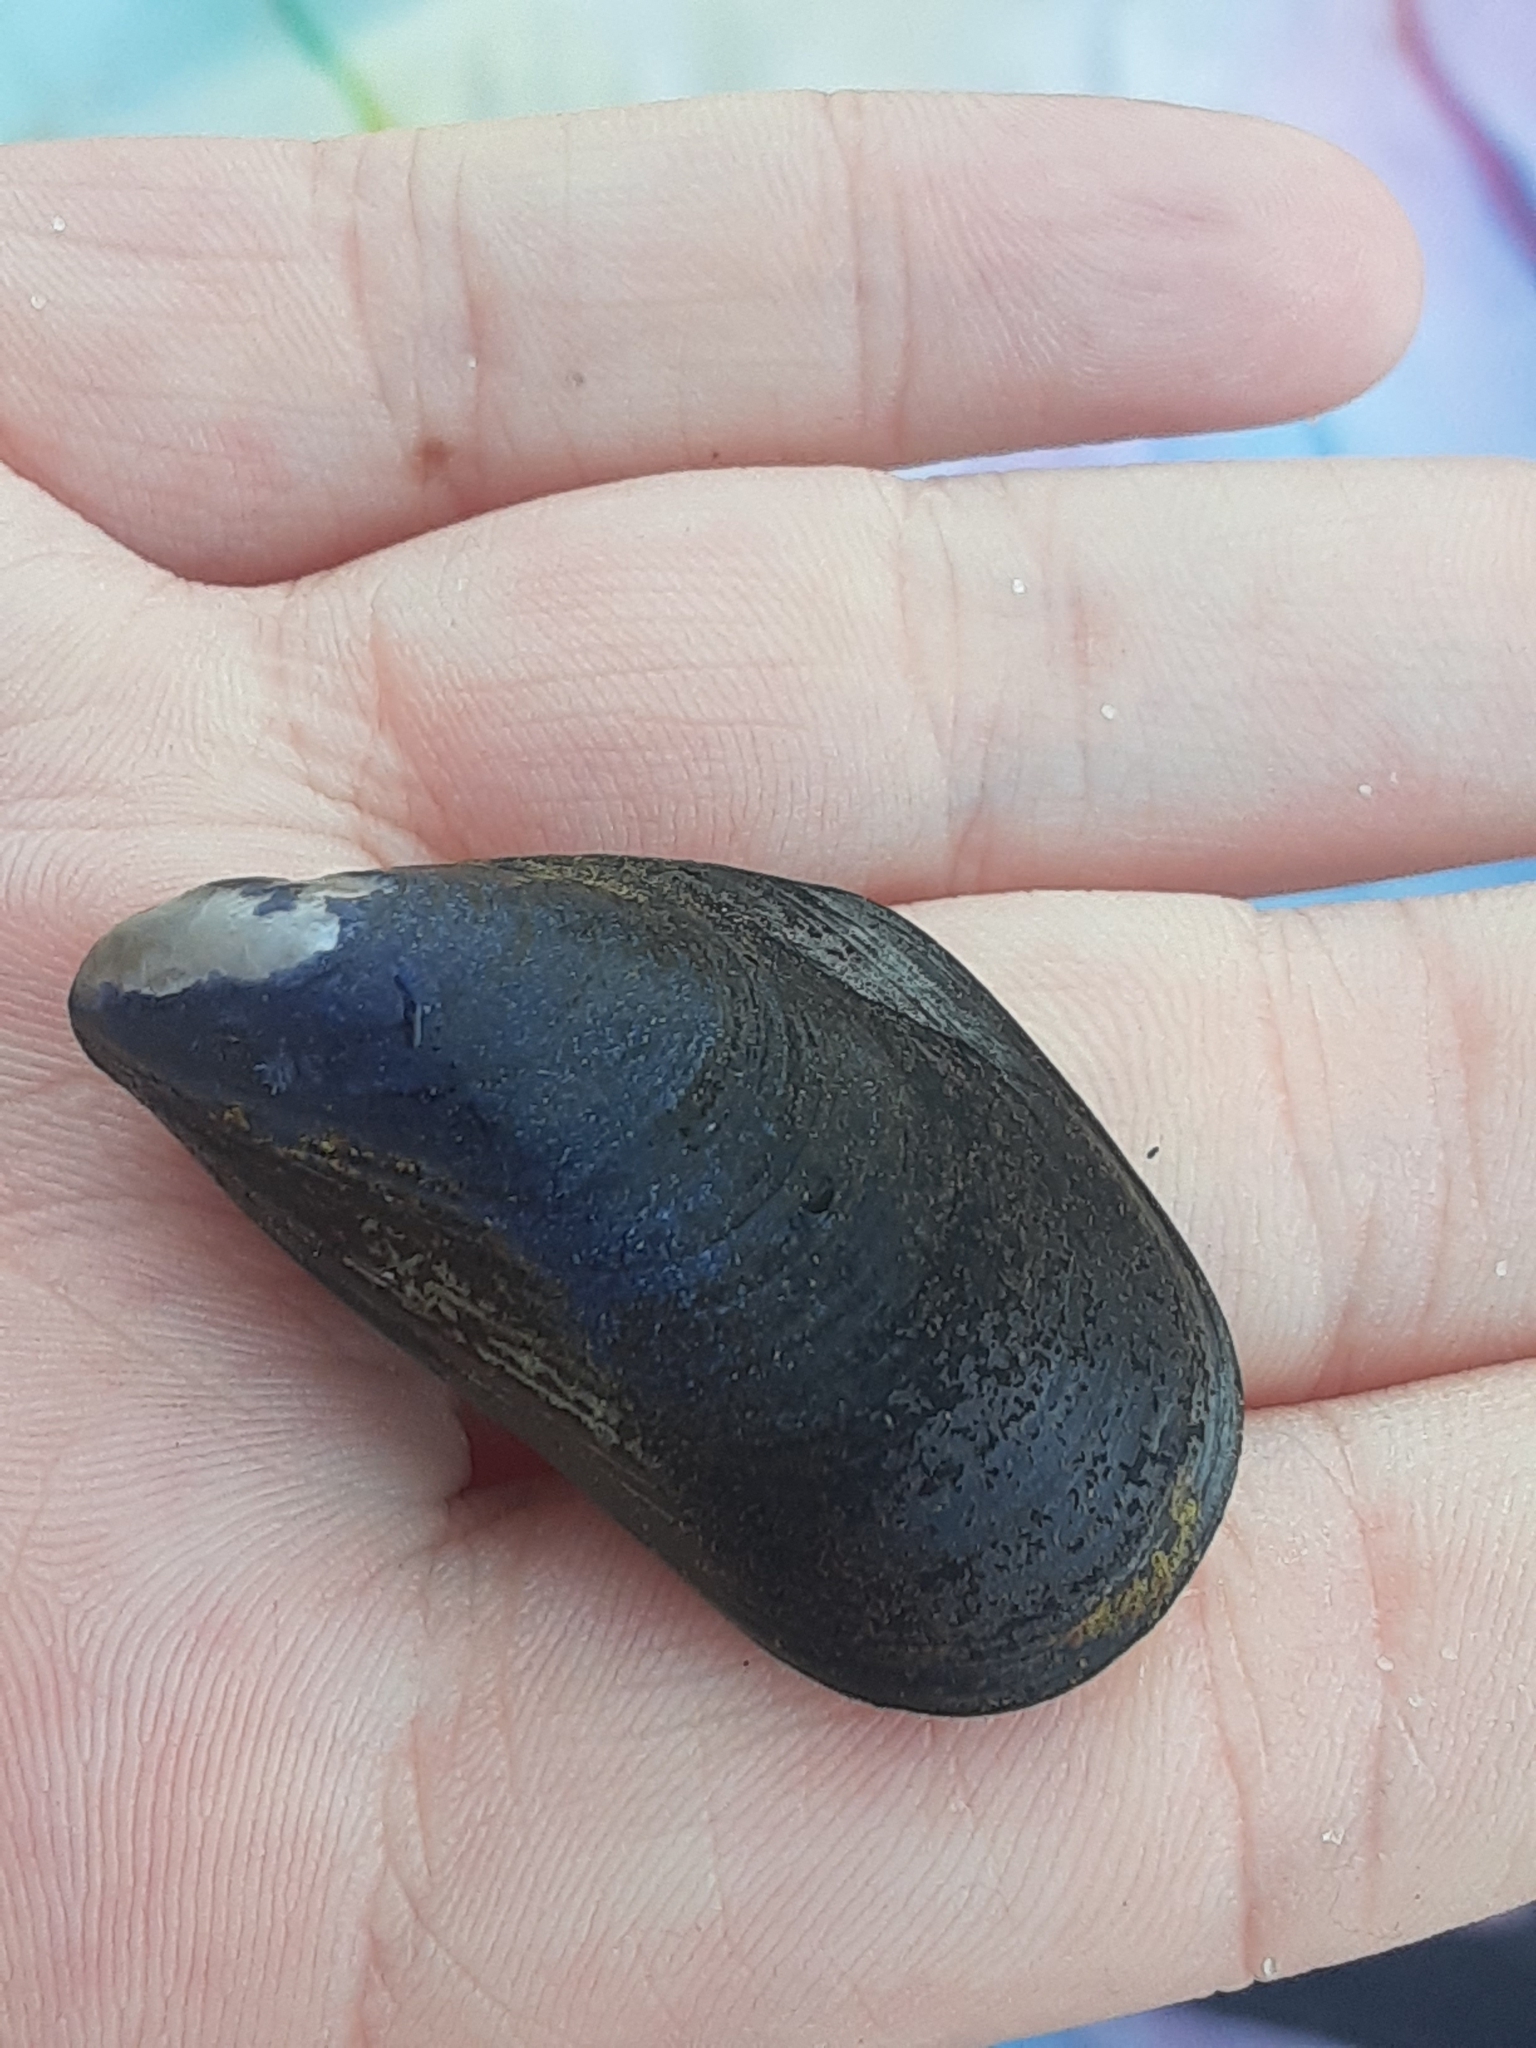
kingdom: Animalia
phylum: Mollusca
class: Bivalvia
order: Mytilida
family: Mytilidae
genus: Mytilus
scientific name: Mytilus edulis
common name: Blue mussel
